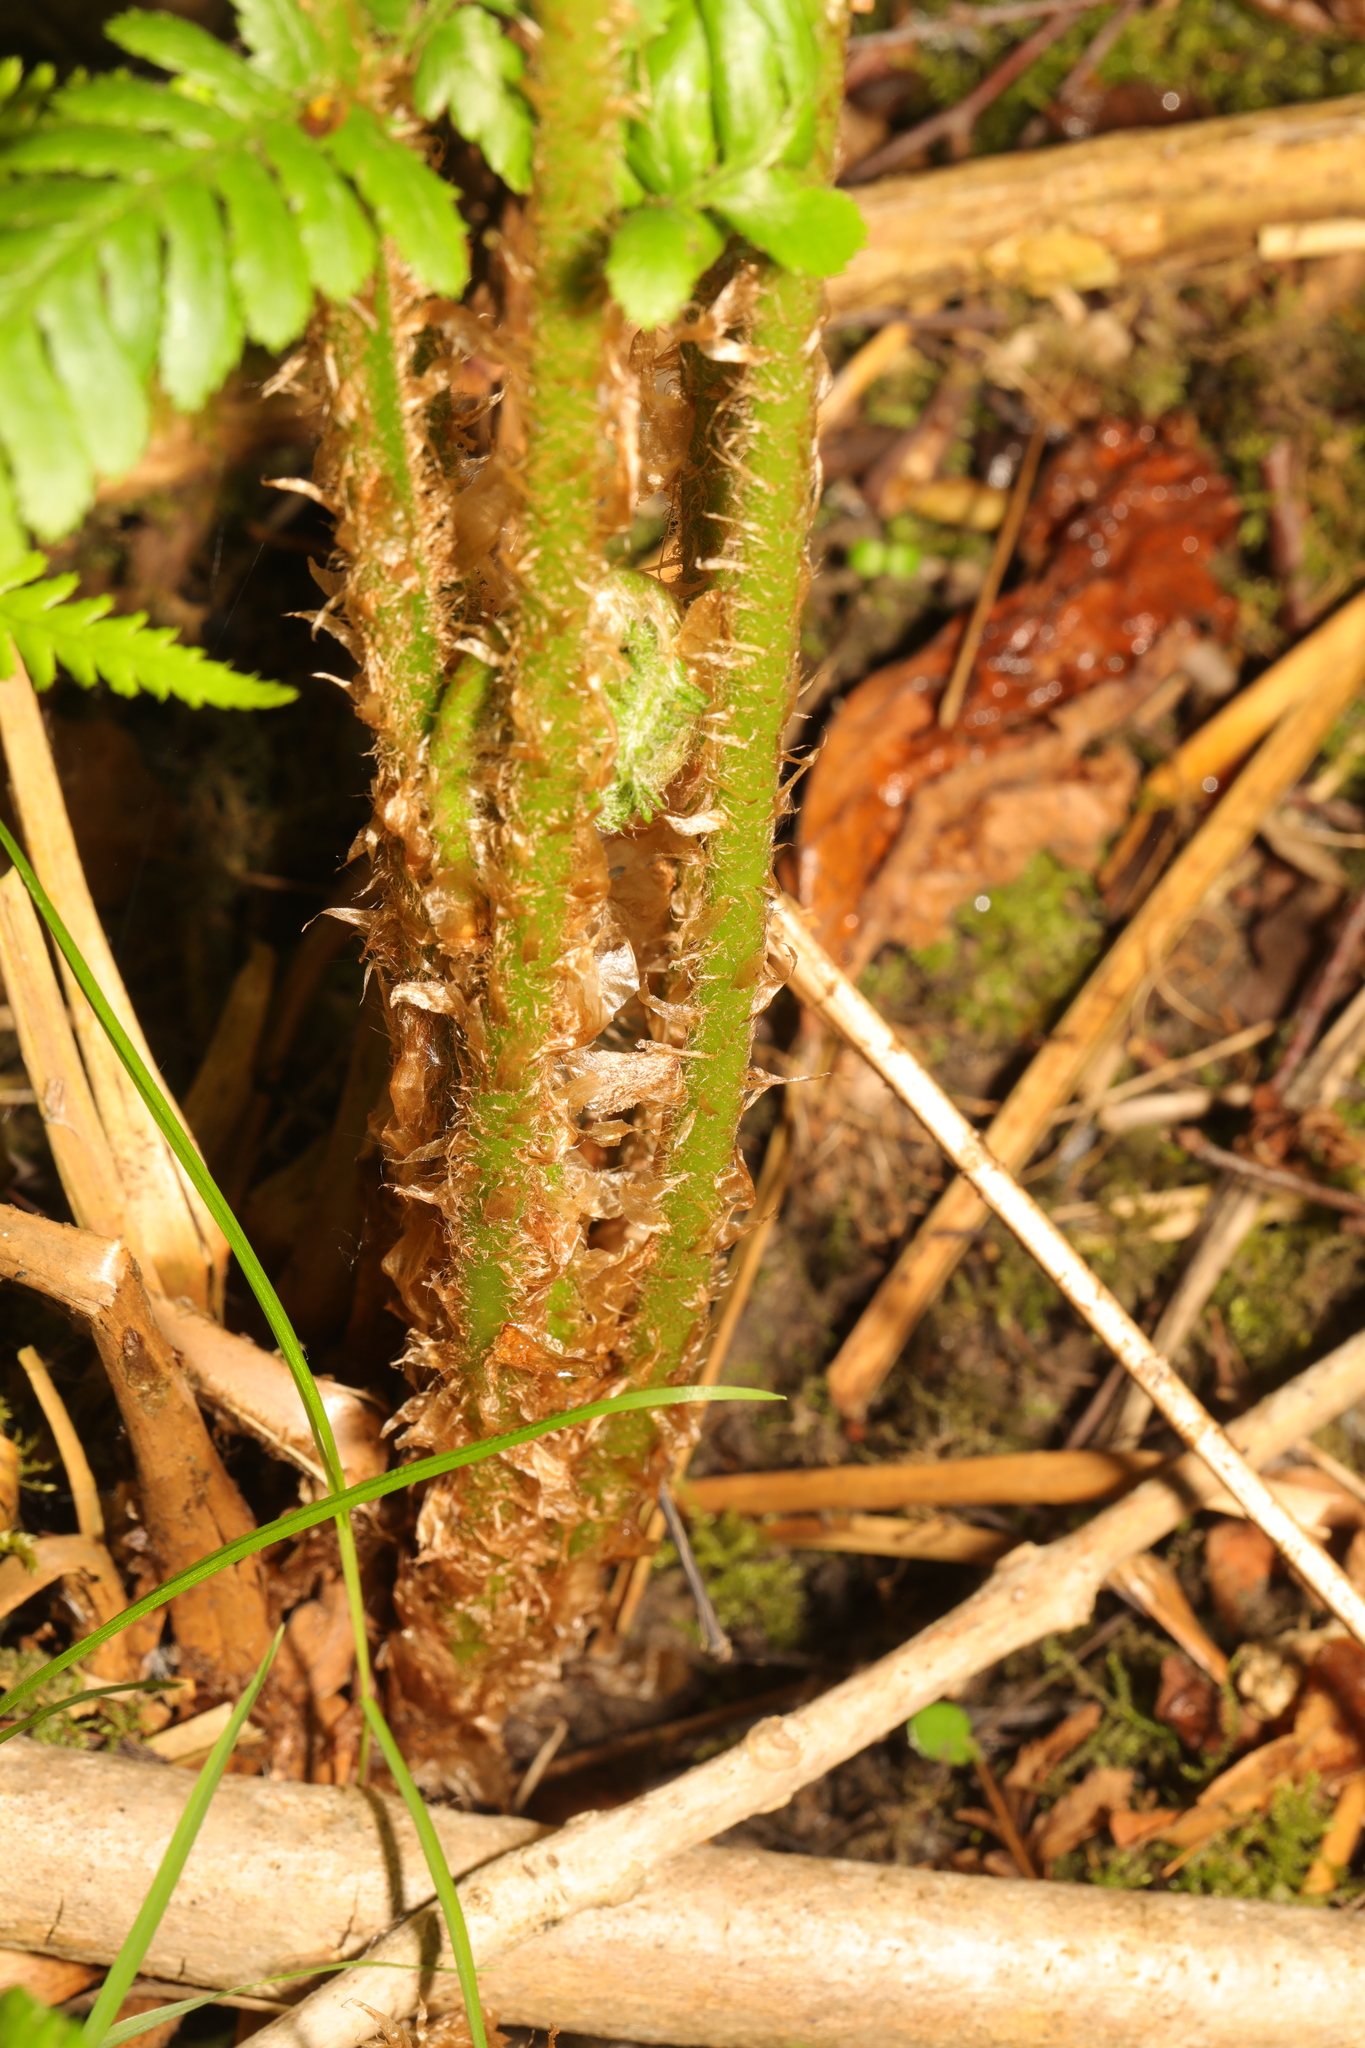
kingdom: Plantae
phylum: Tracheophyta
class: Polypodiopsida
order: Polypodiales
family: Dryopteridaceae
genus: Dryopteris
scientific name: Dryopteris filix-mas
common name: Male fern
